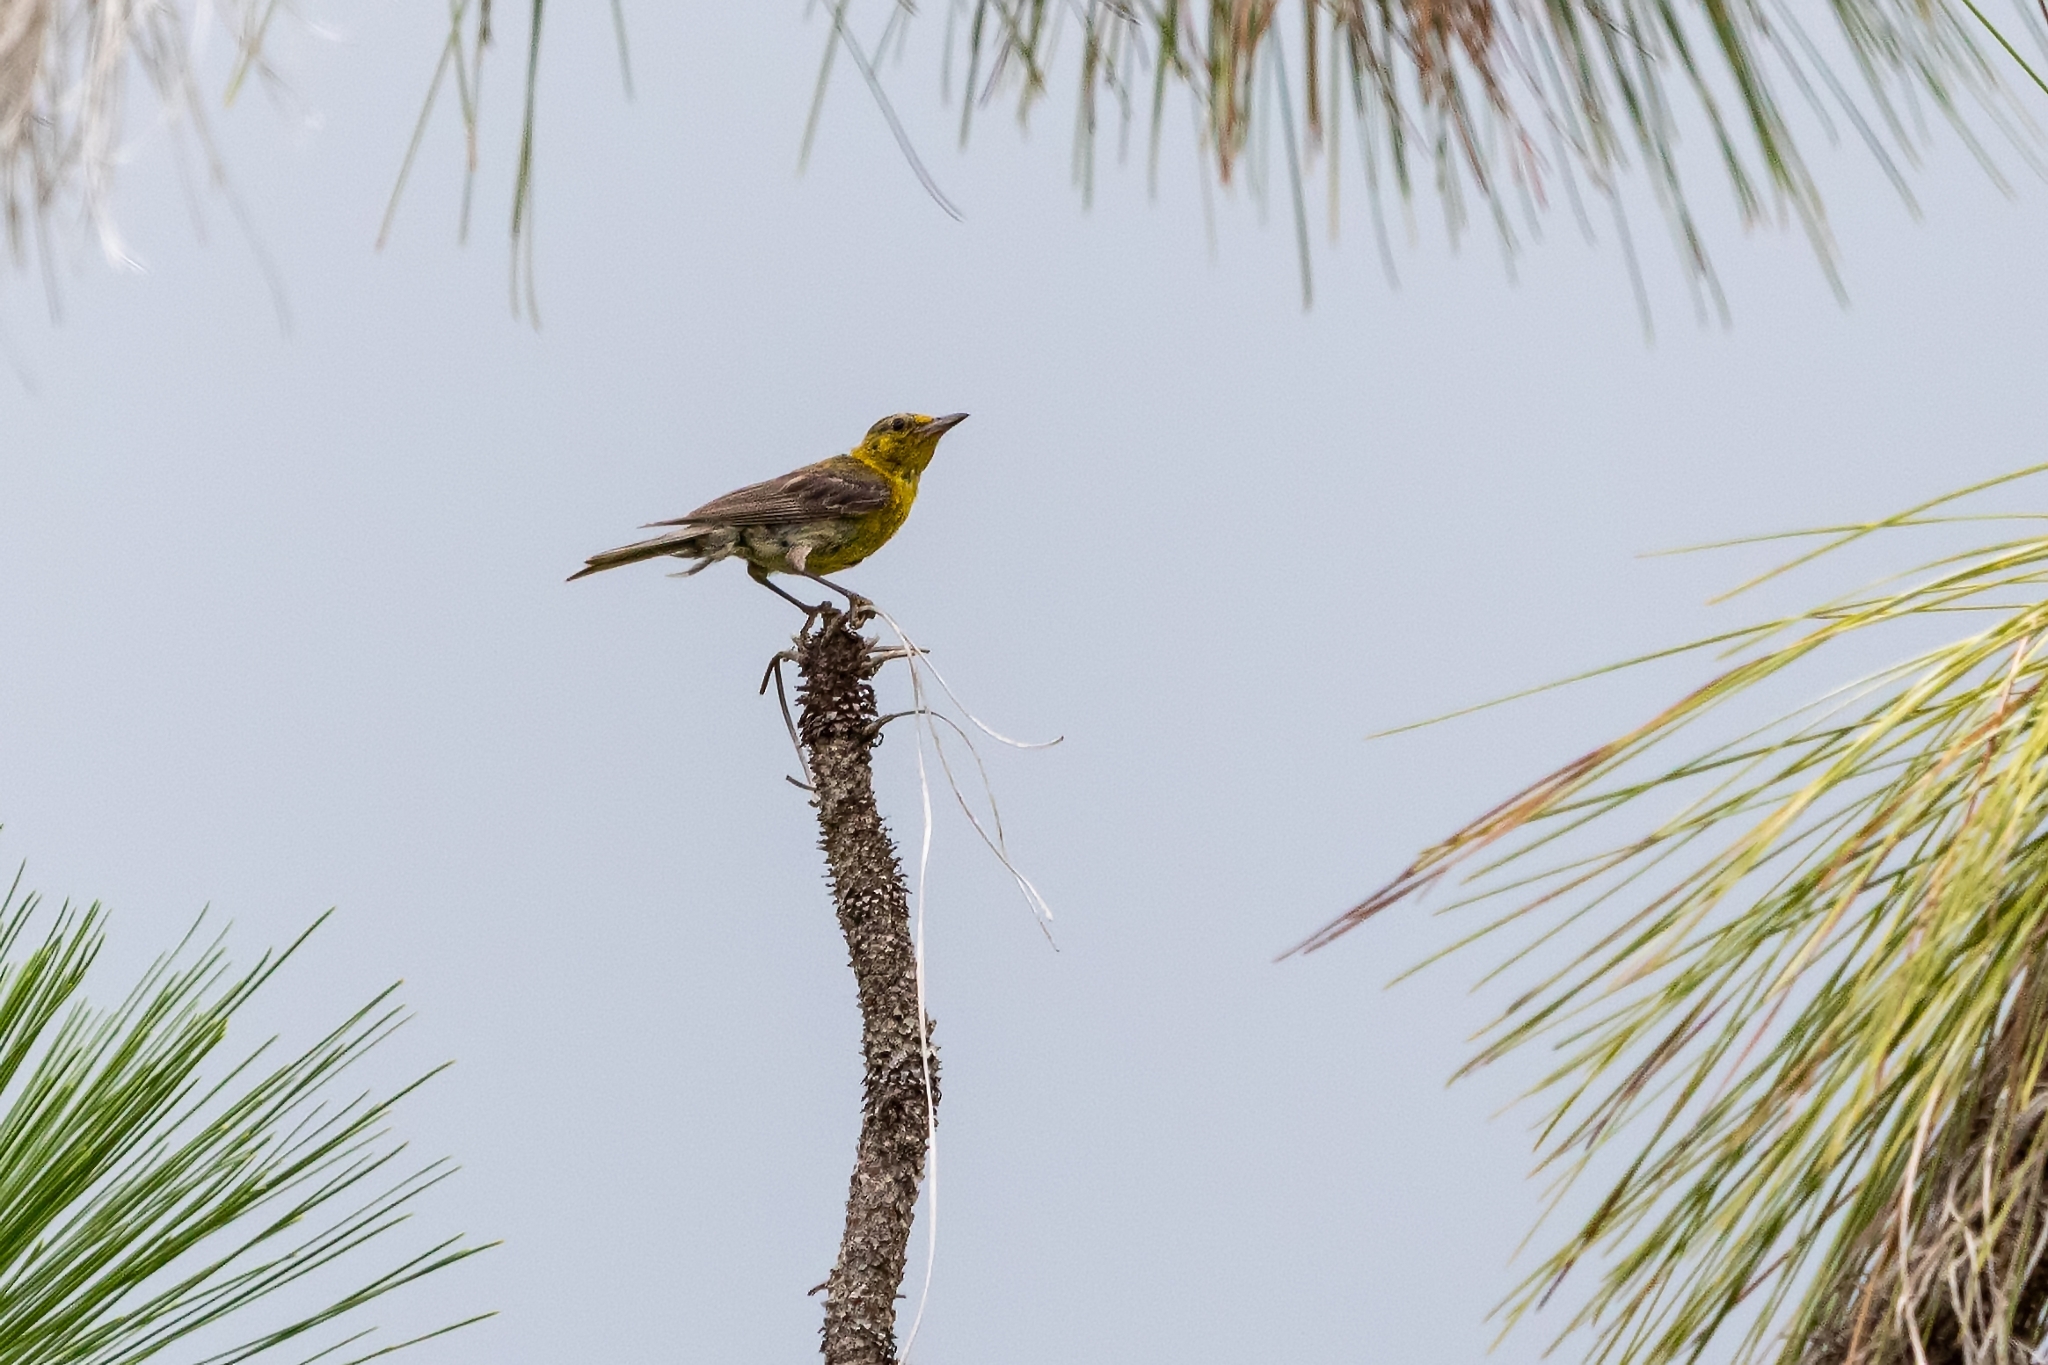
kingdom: Animalia
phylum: Chordata
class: Aves
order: Passeriformes
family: Icteridae
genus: Icterus
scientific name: Icterus spurius
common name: Orchard oriole
